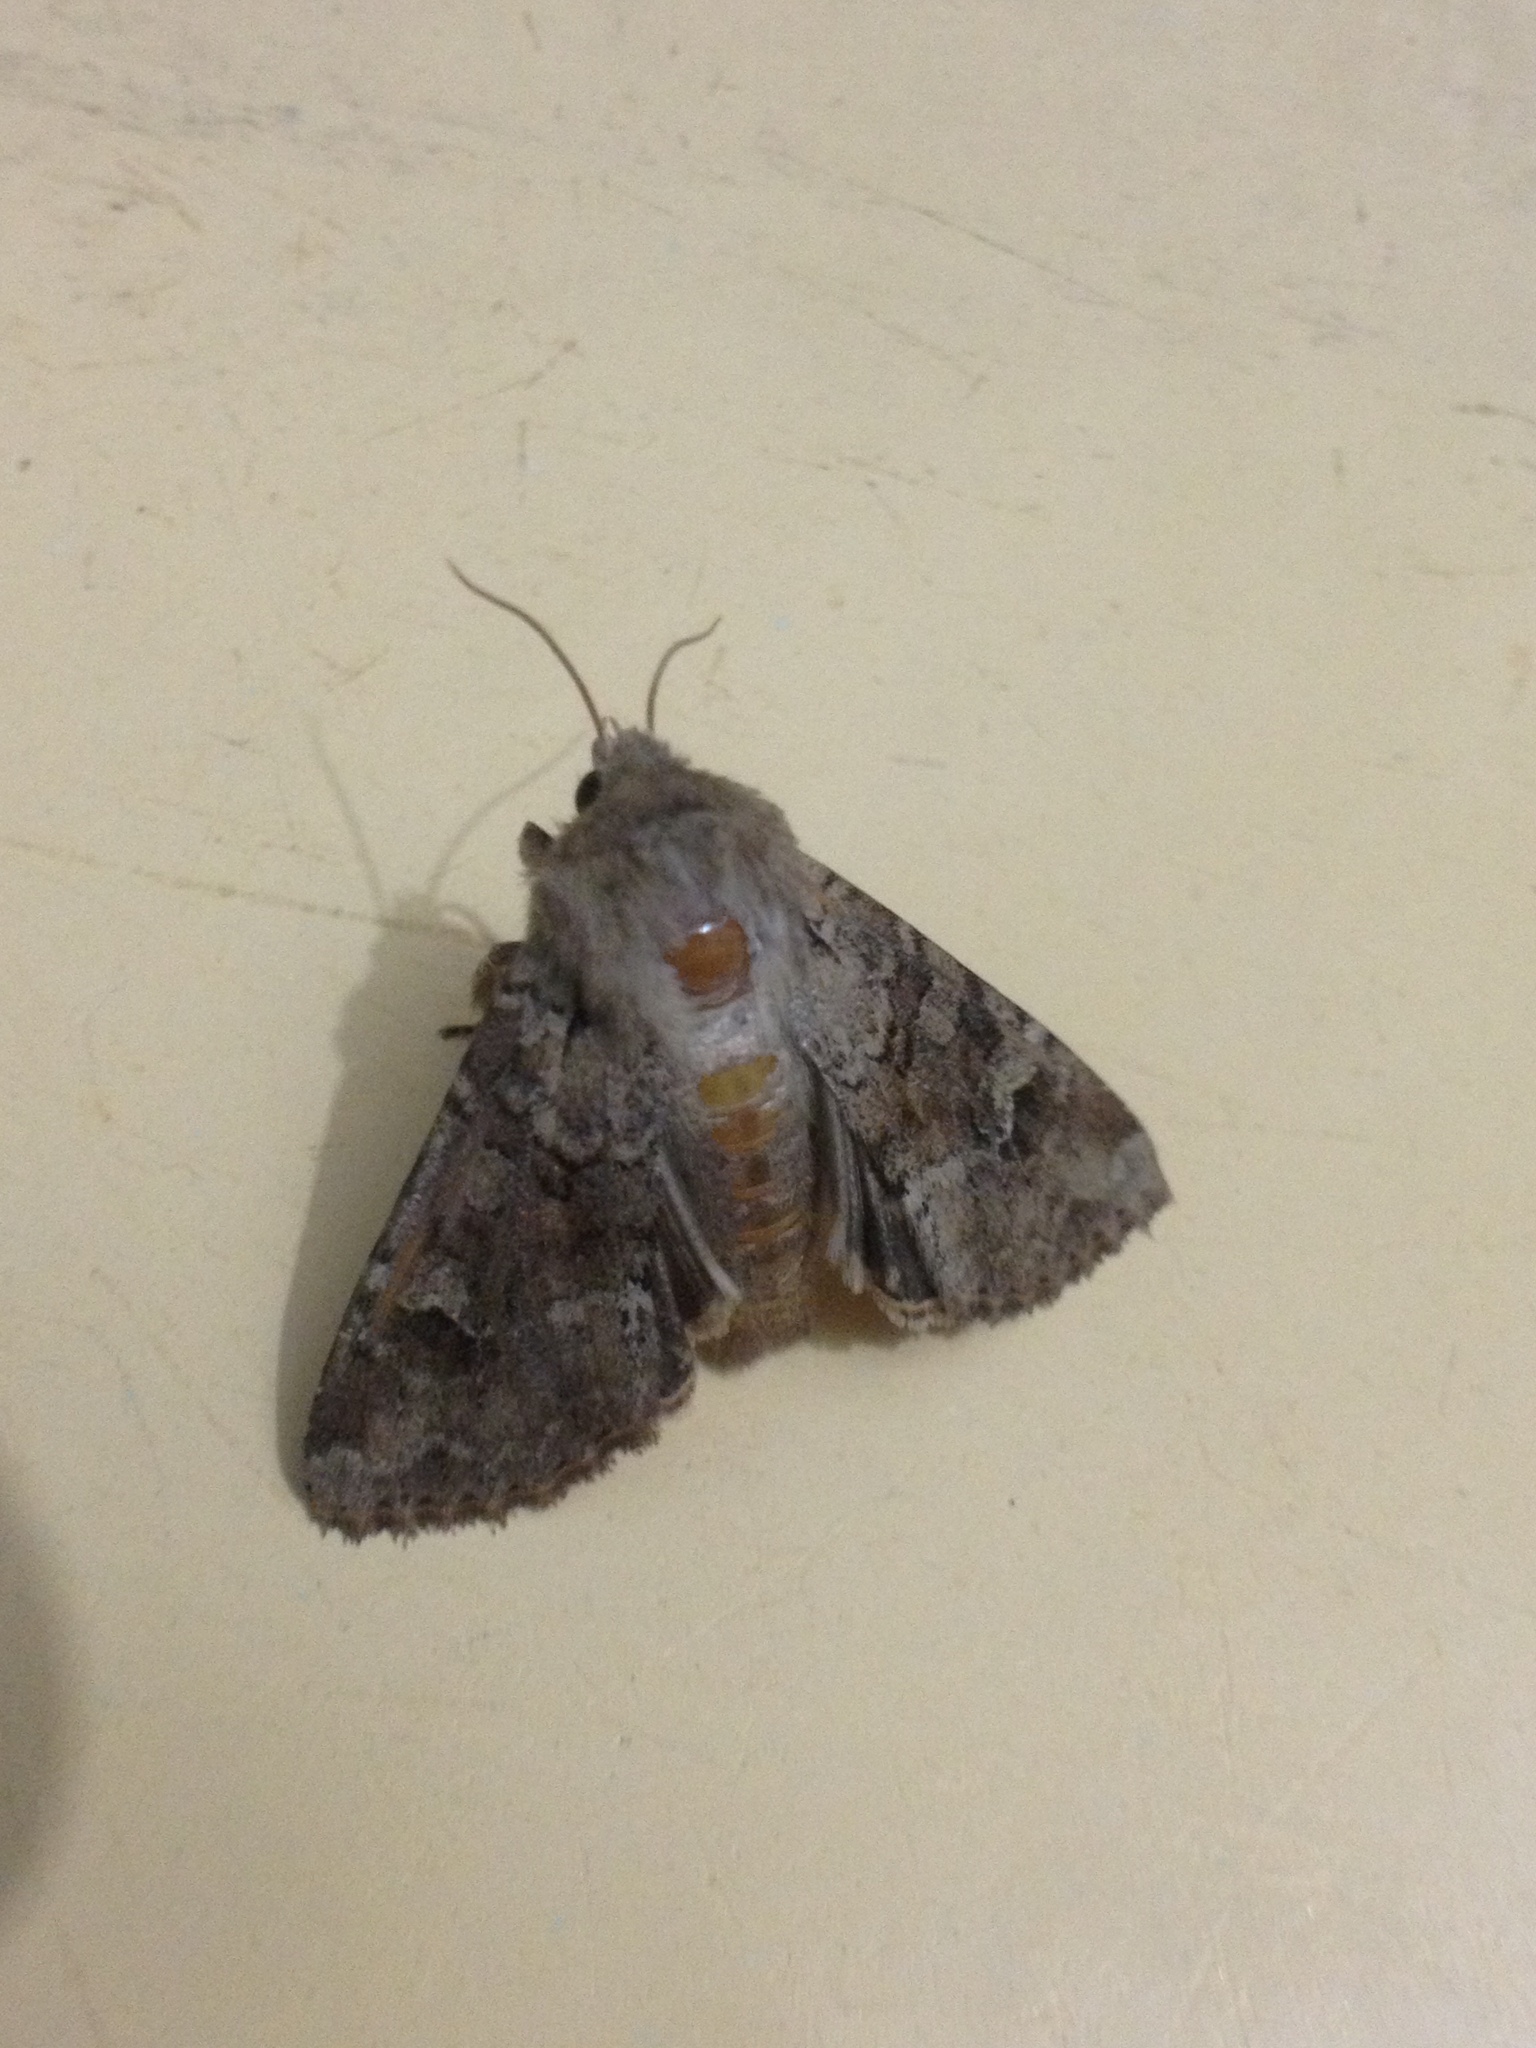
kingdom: Animalia
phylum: Arthropoda
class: Insecta
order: Lepidoptera
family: Noctuidae
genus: Apamea
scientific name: Apamea sordens
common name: Rustic shoulder-knot
